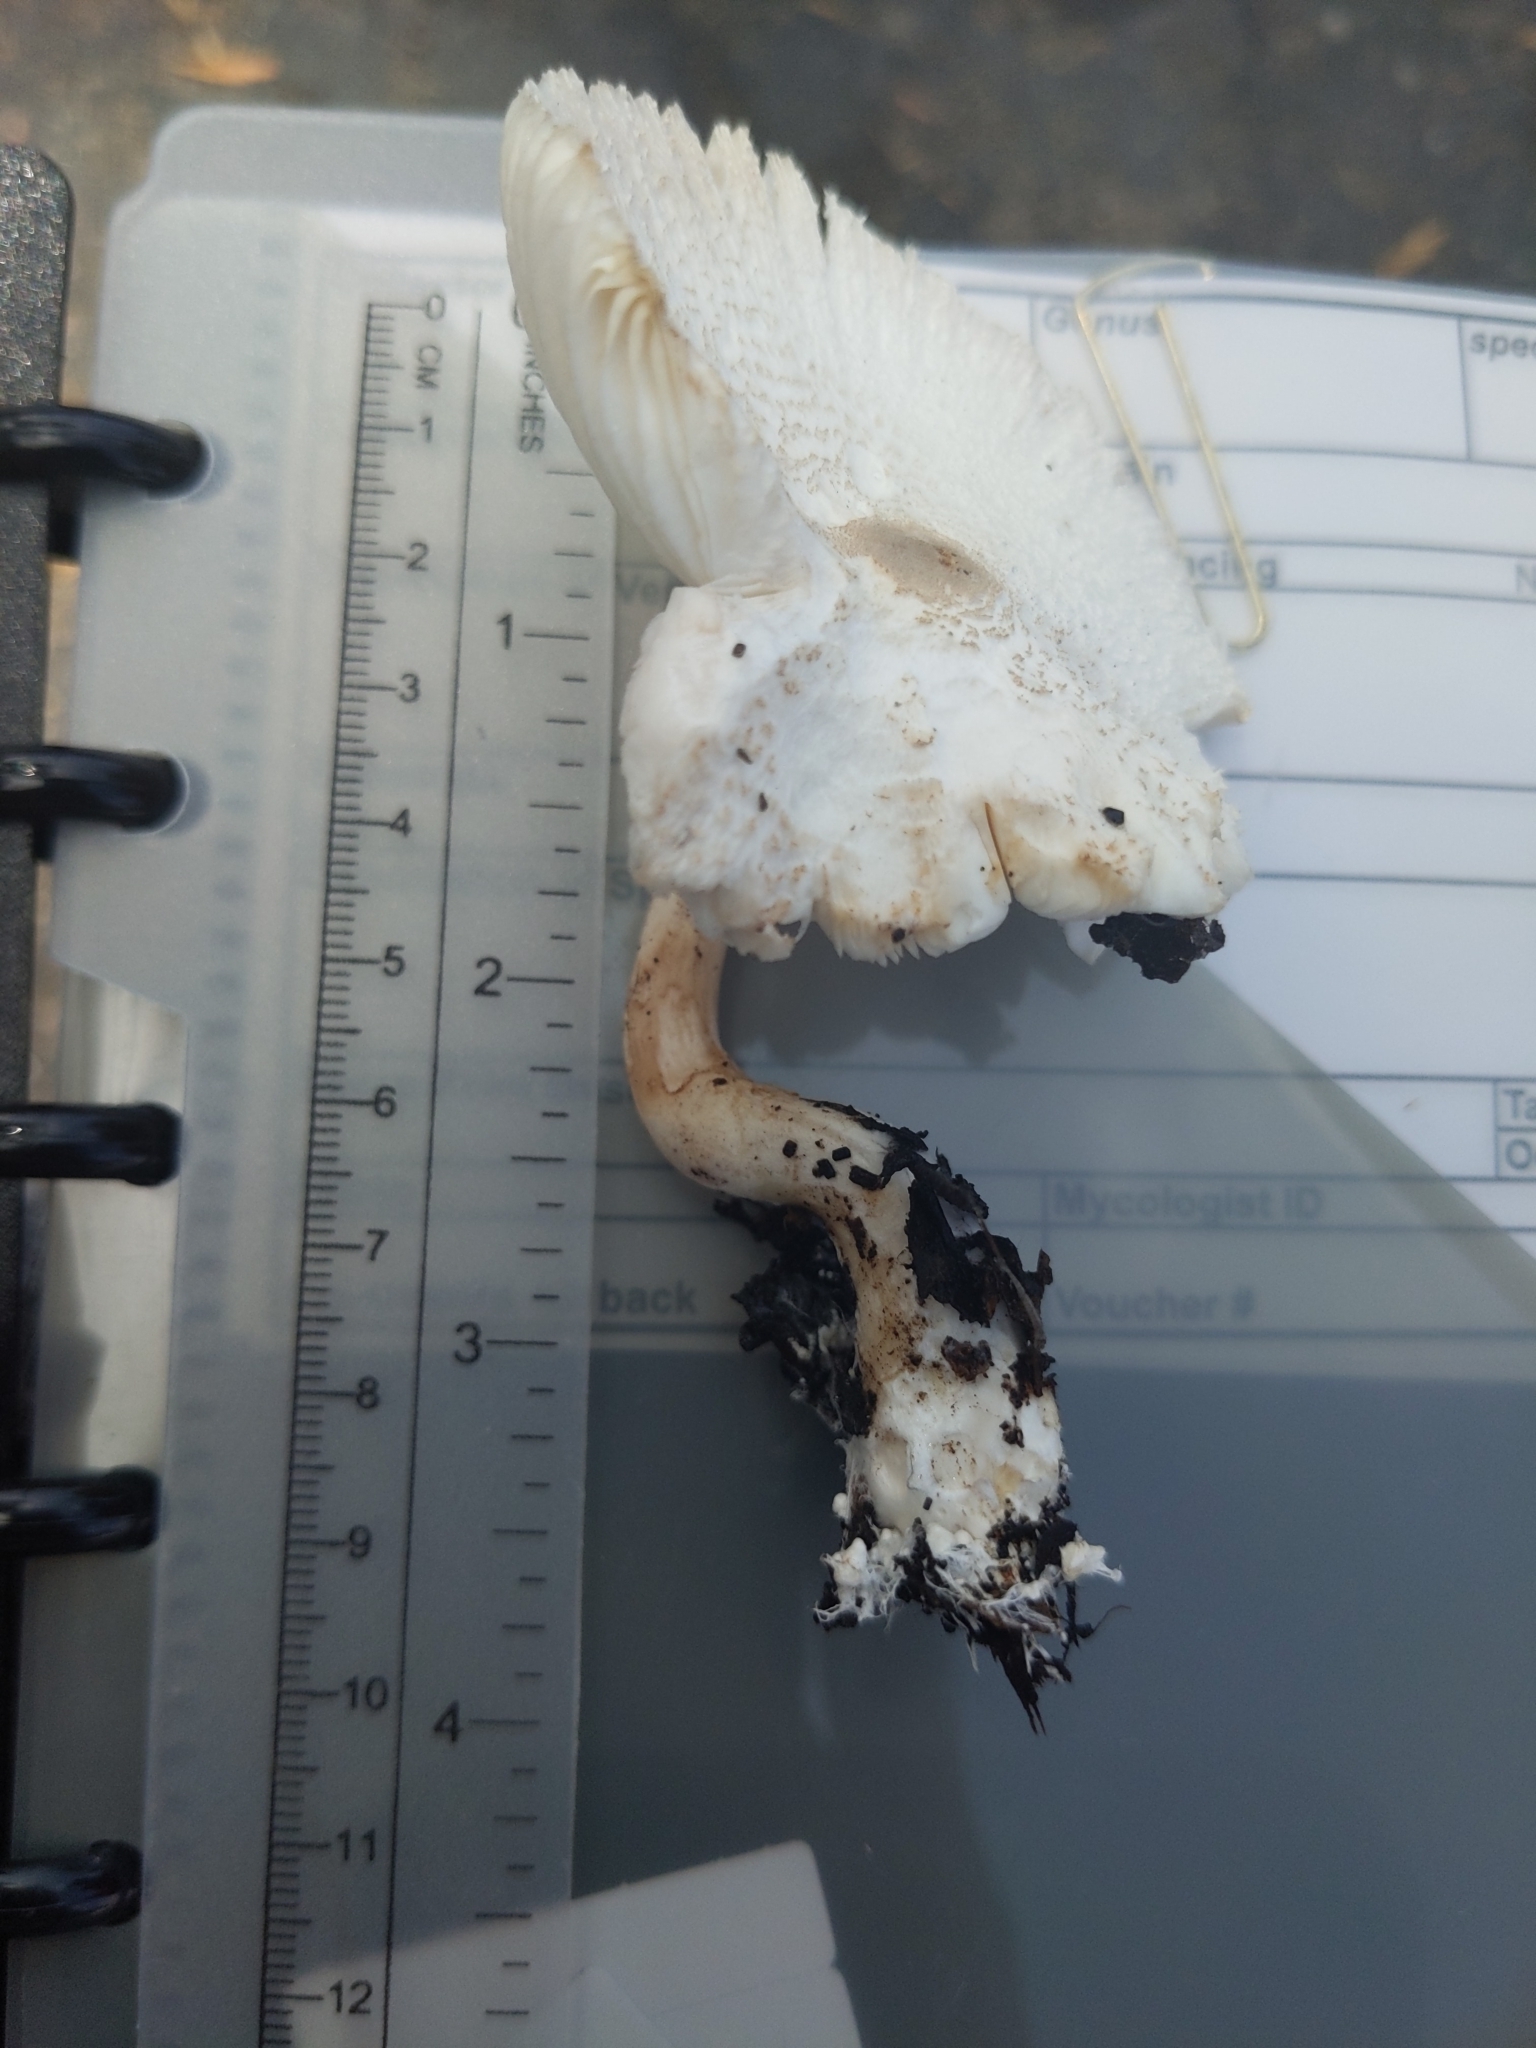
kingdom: Fungi
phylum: Basidiomycota
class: Agaricomycetes
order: Agaricales
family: Agaricaceae
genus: Leucocoprinus
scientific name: Leucocoprinus cepistipes
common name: Onion-stalk parasol
